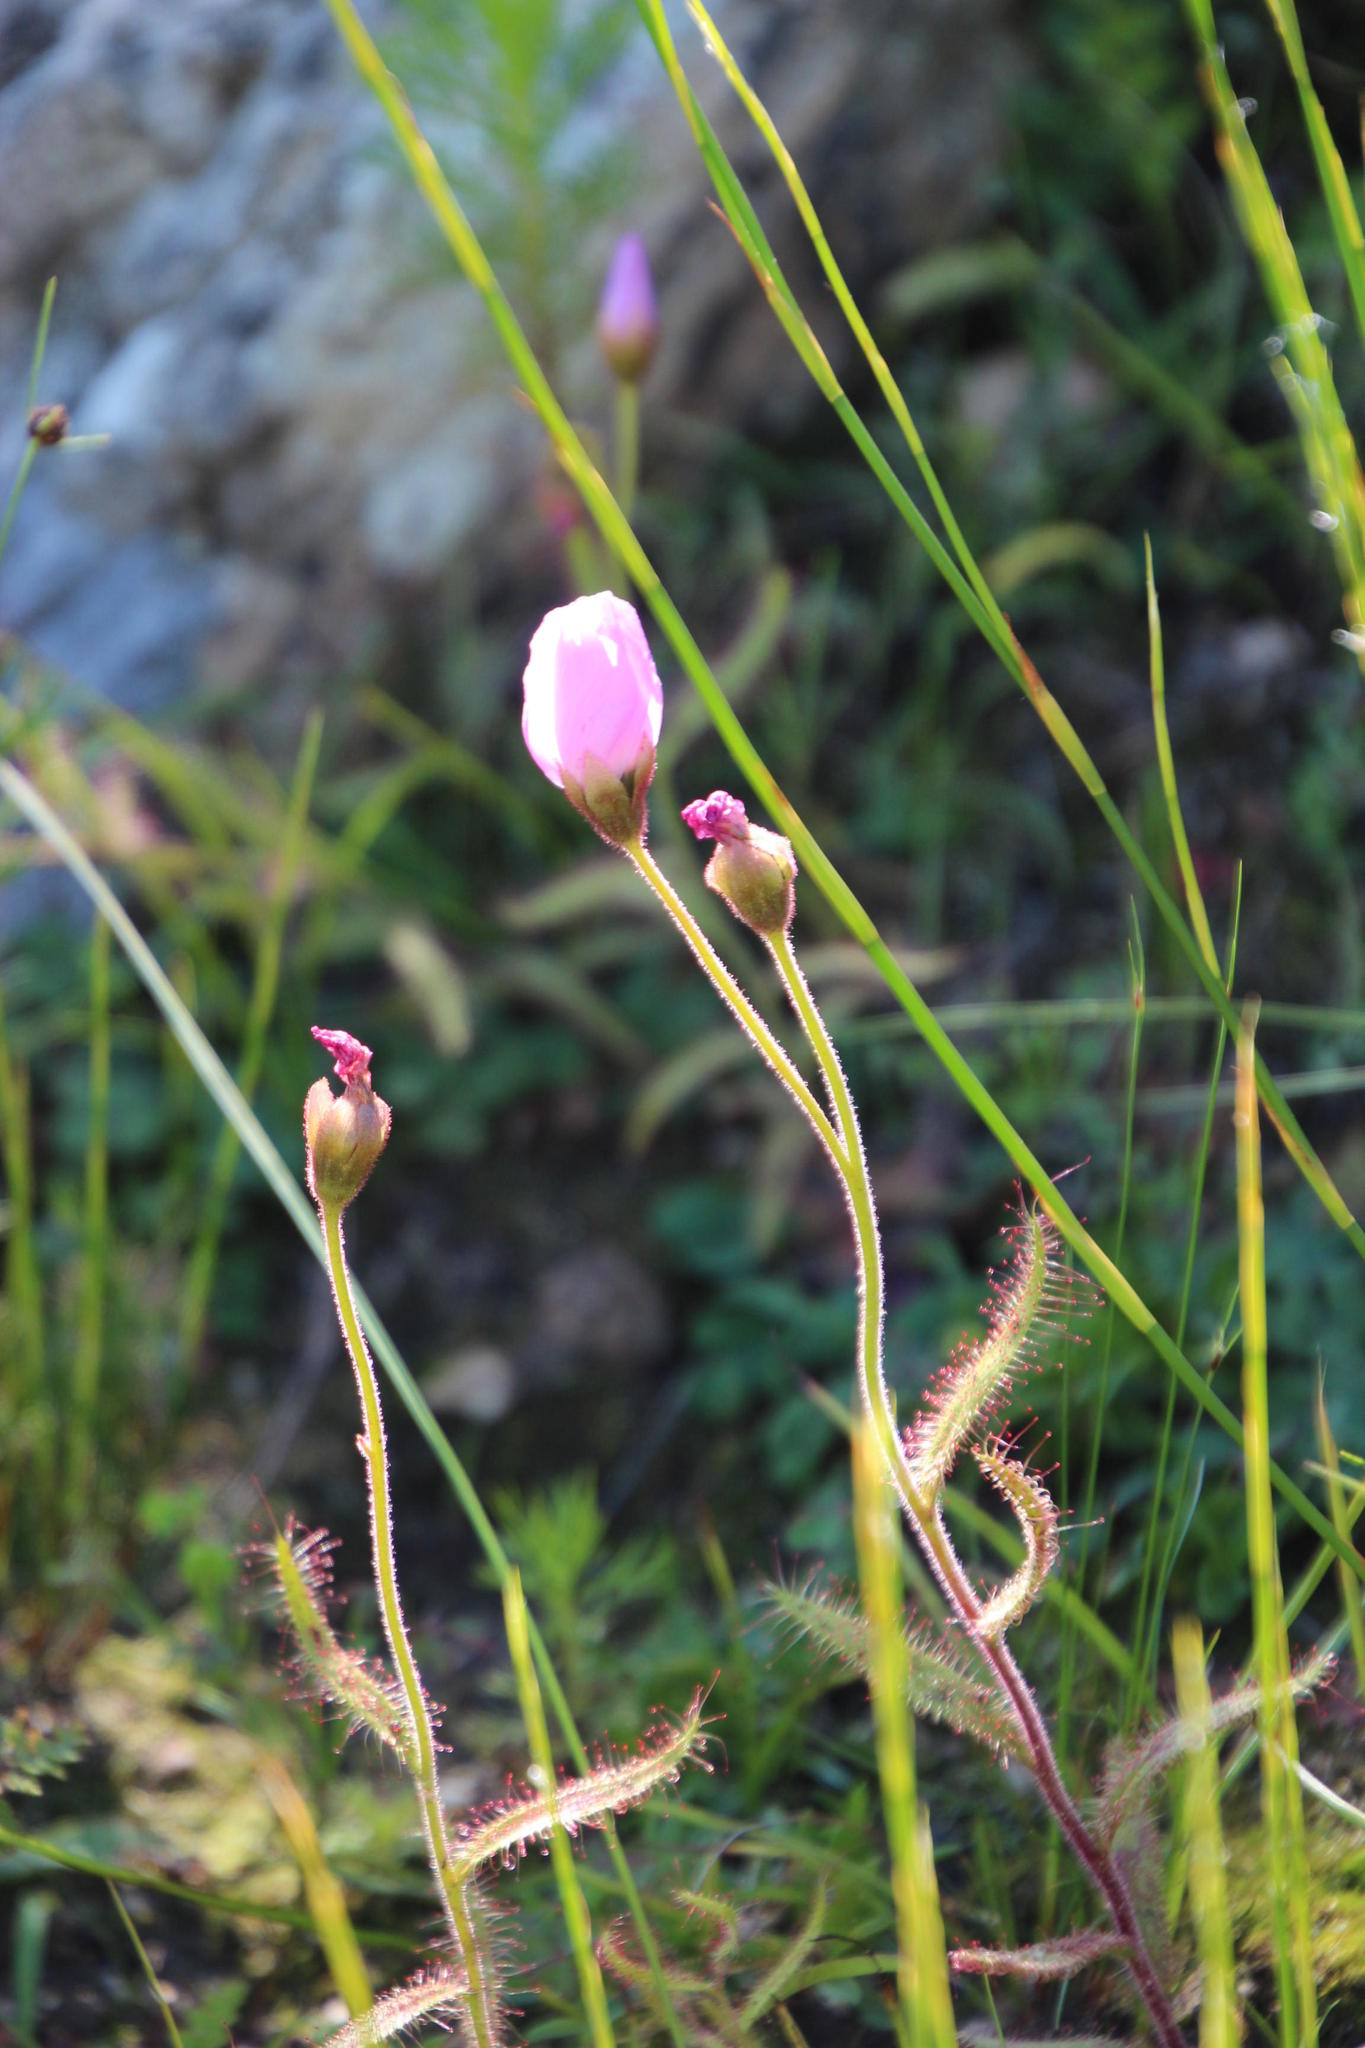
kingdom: Plantae
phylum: Tracheophyta
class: Magnoliopsida
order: Caryophyllales
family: Droseraceae
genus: Drosera
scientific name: Drosera cistiflora
